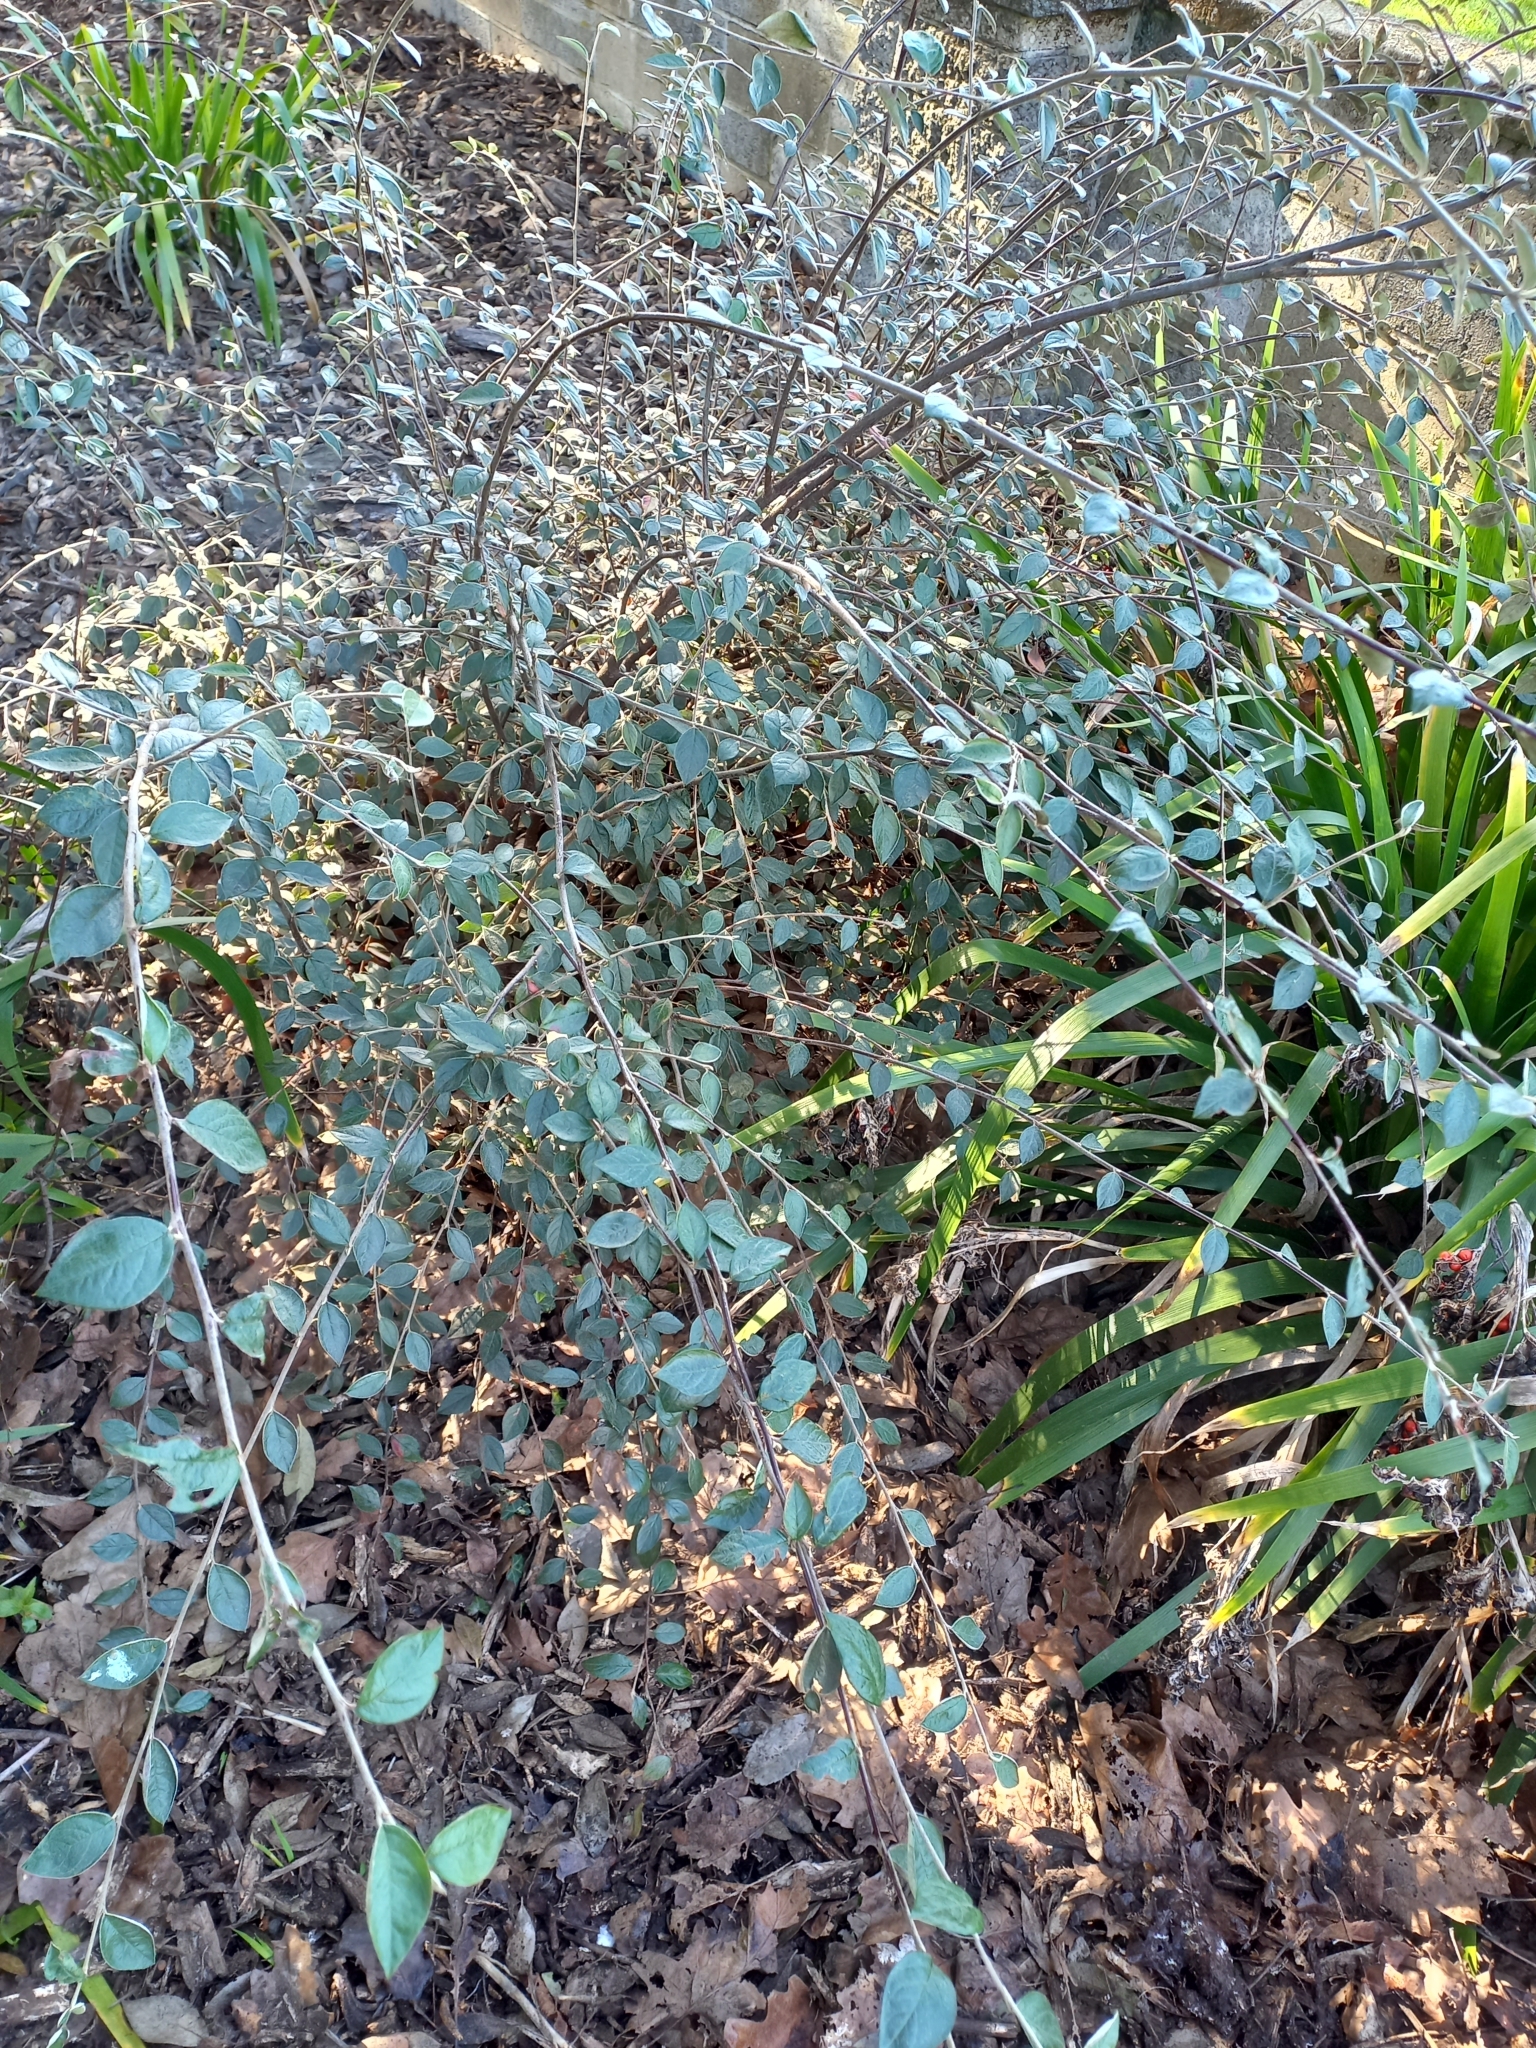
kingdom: Plantae
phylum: Tracheophyta
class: Magnoliopsida
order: Rosales
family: Rosaceae
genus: Cotoneaster
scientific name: Cotoneaster franchetii
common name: Franchet's cotoneaster
